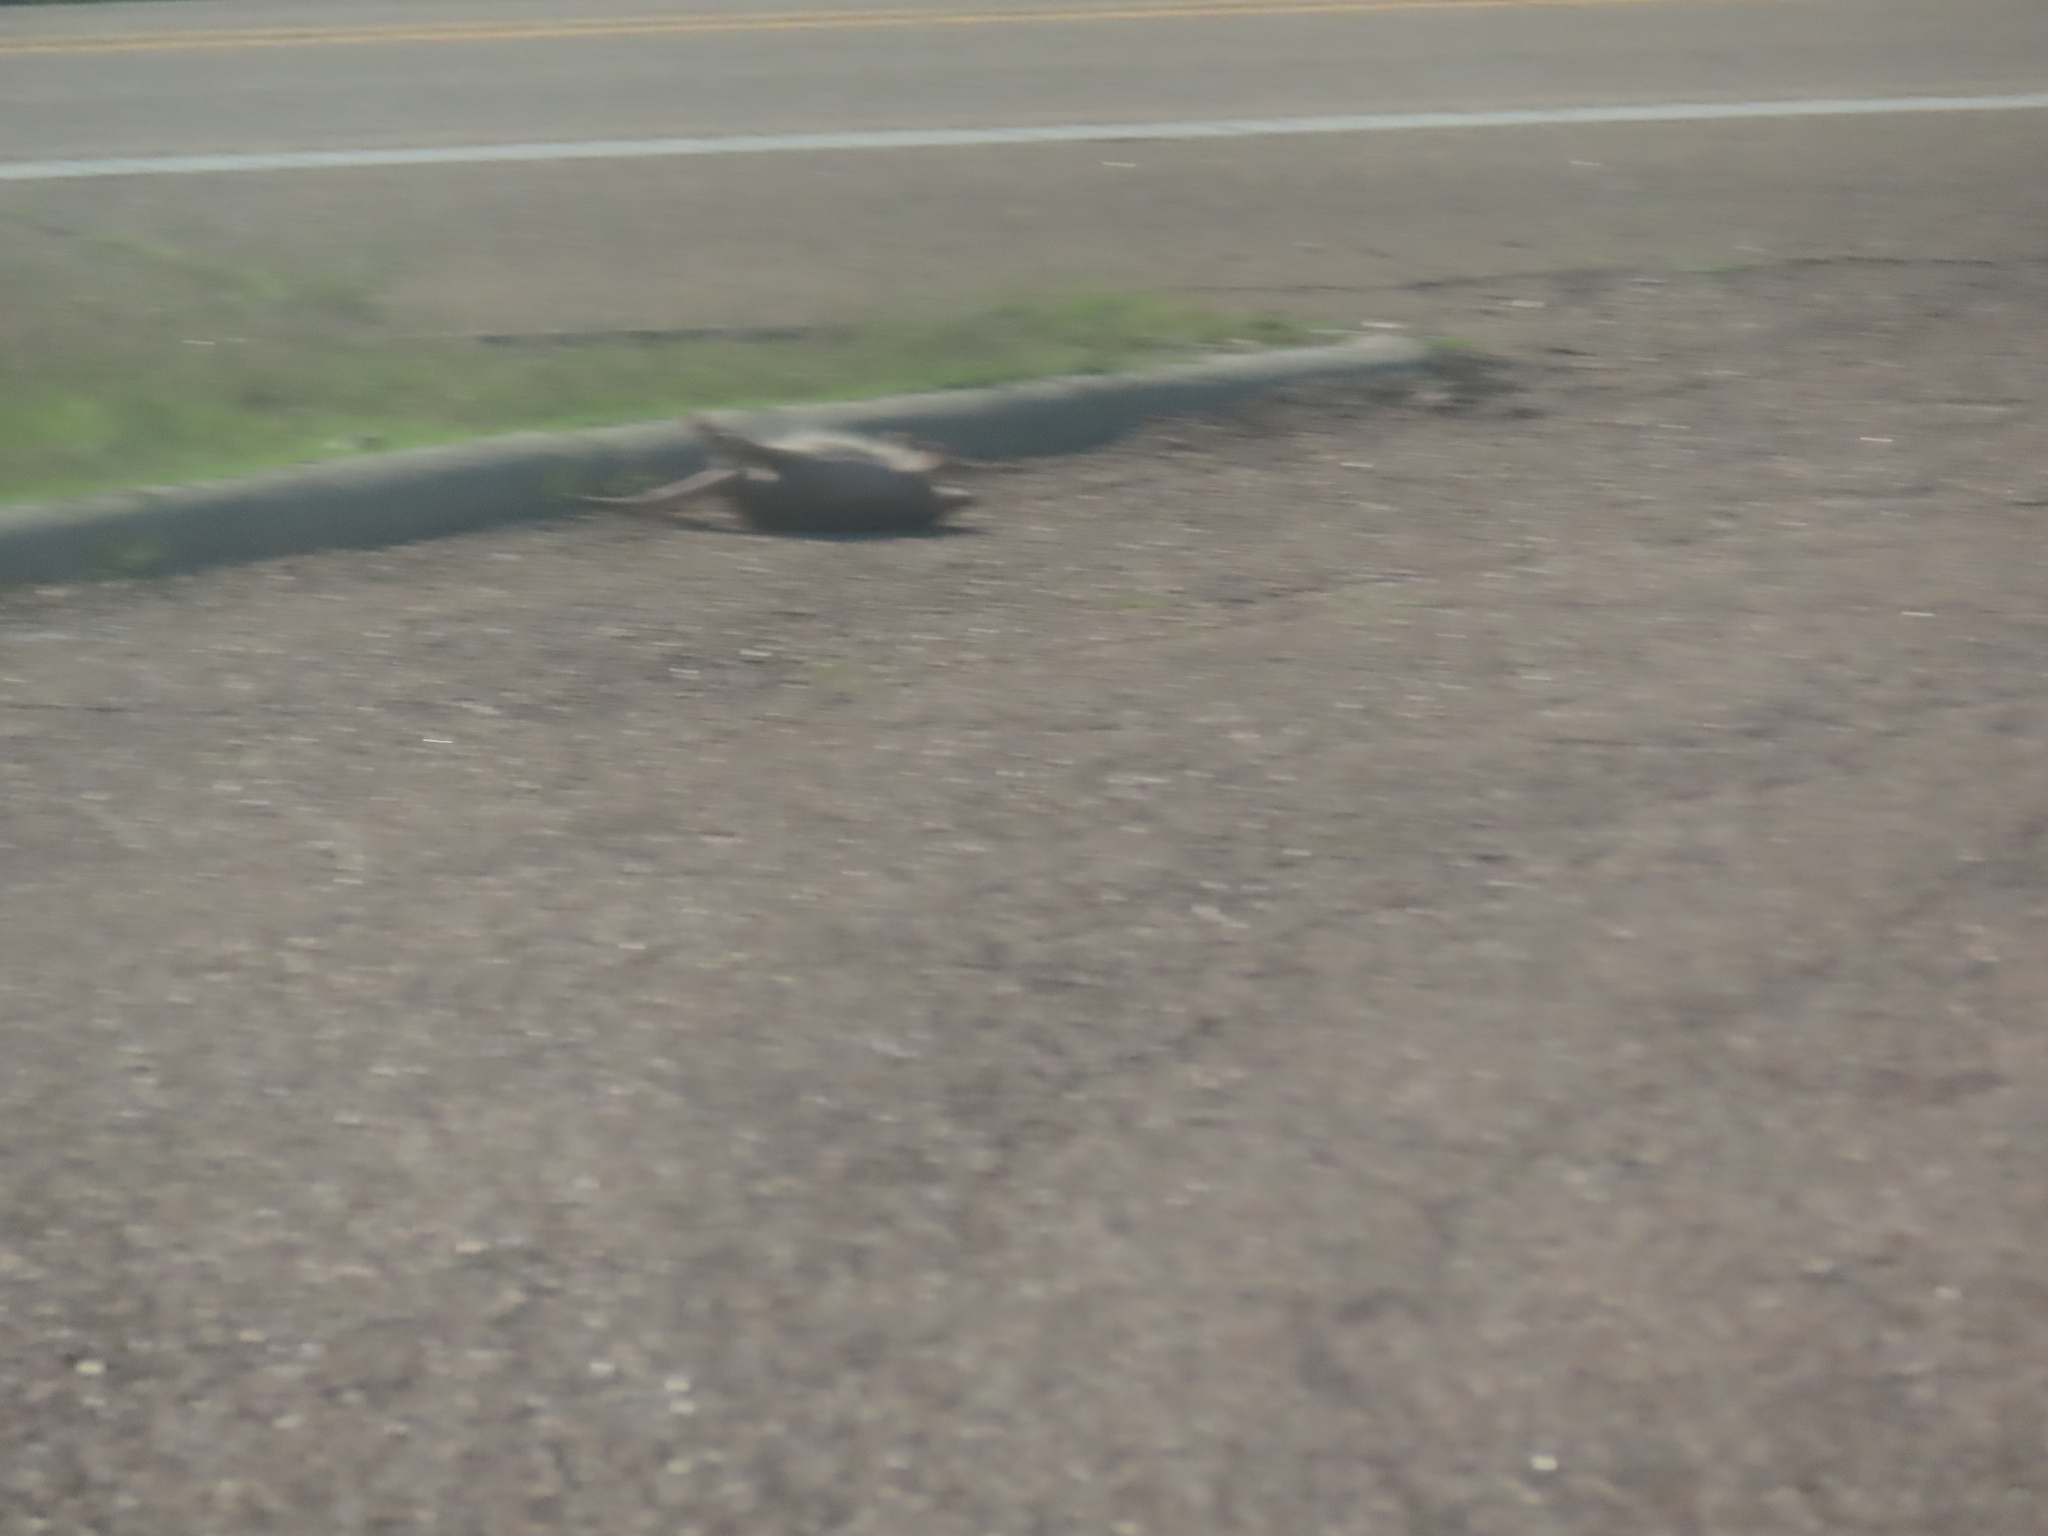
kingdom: Animalia
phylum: Chordata
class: Mammalia
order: Cingulata
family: Dasypodidae
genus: Dasypus
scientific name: Dasypus novemcinctus
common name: Nine-banded armadillo
